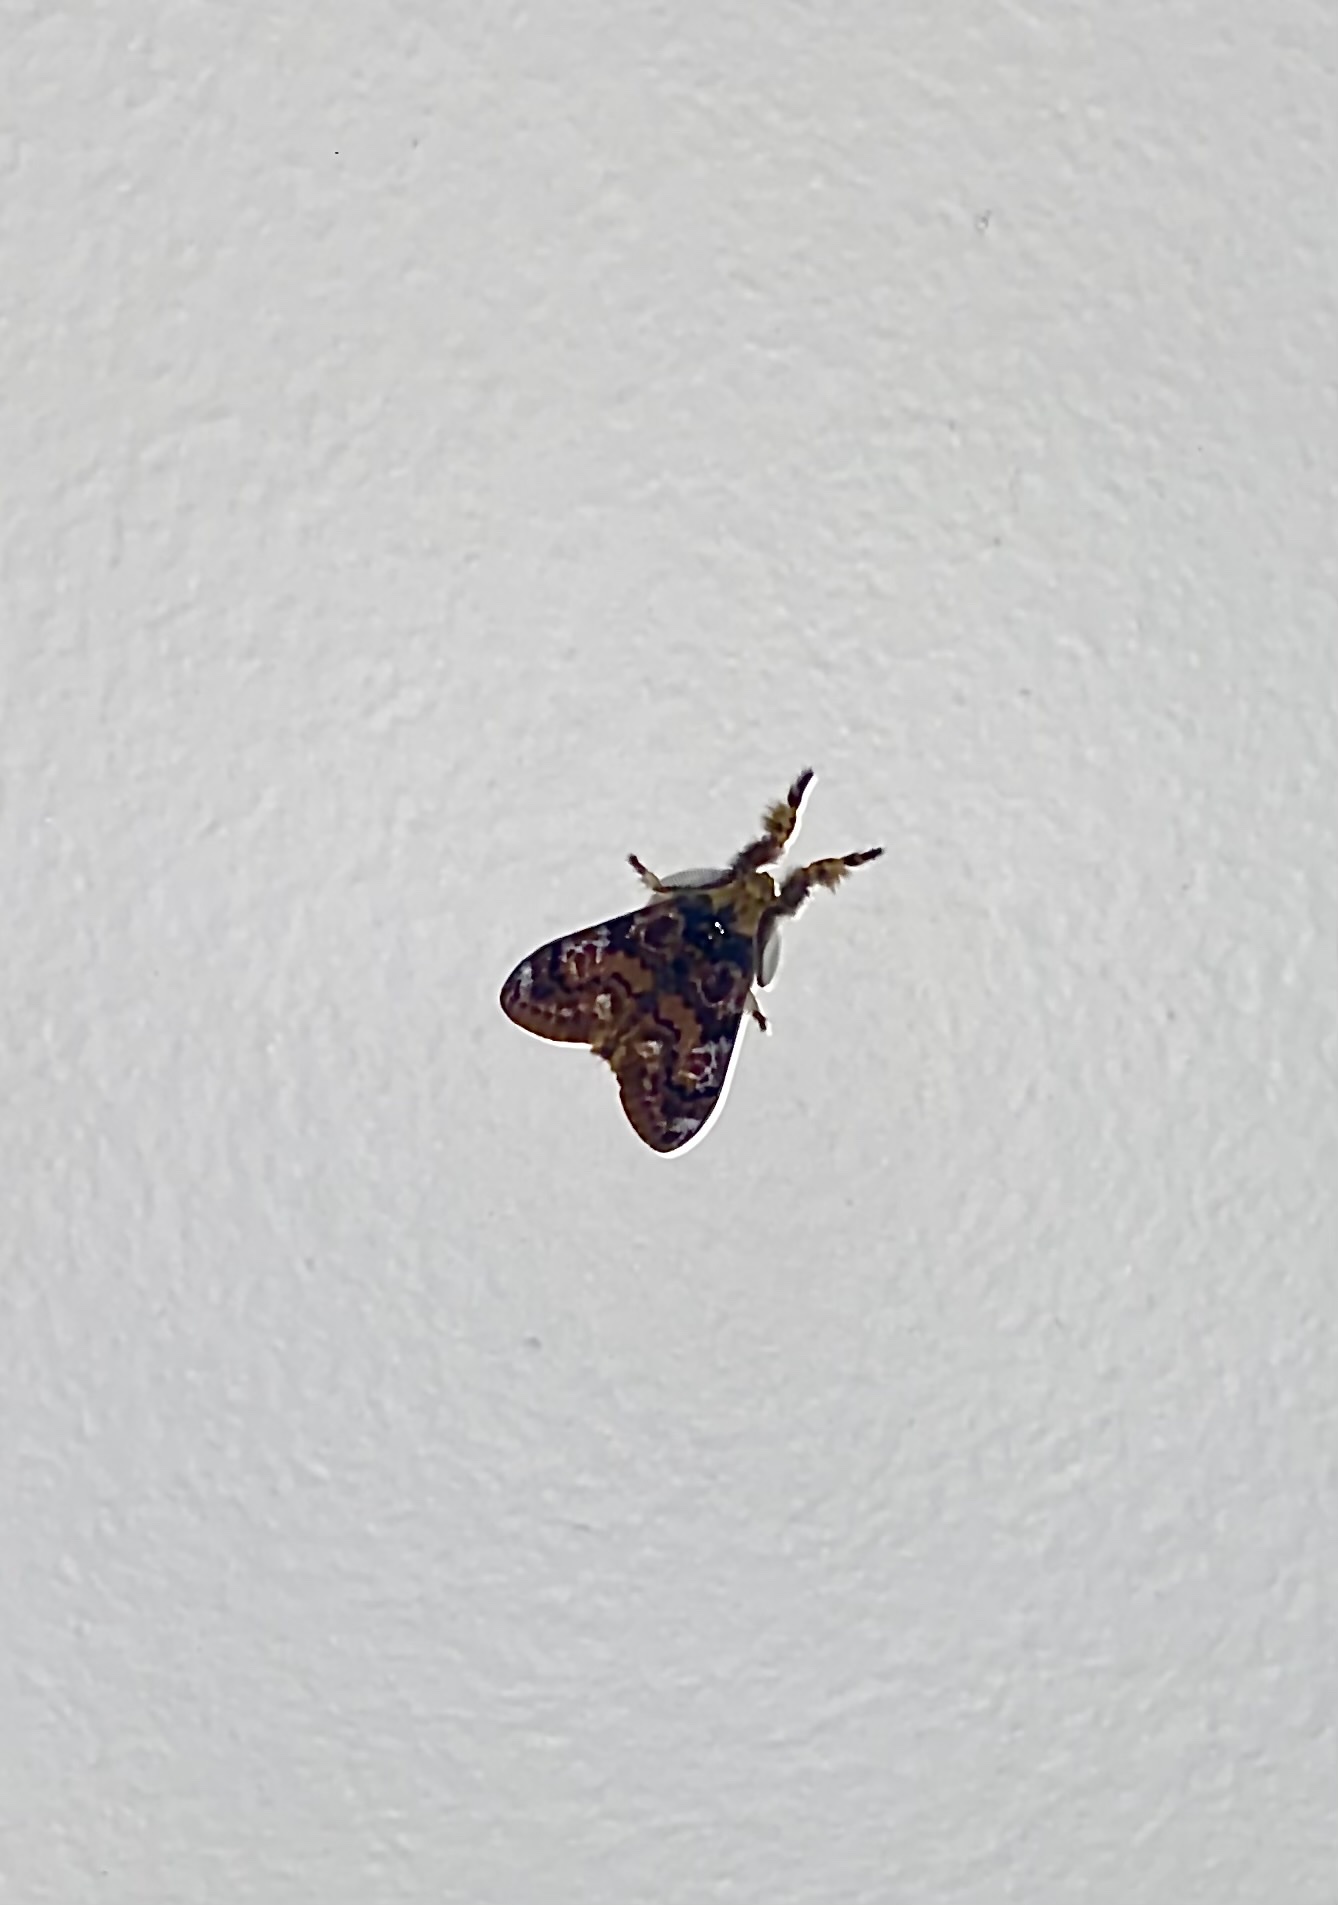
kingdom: Animalia
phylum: Arthropoda
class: Insecta
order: Lepidoptera
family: Erebidae
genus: Orgyia
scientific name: Orgyia
